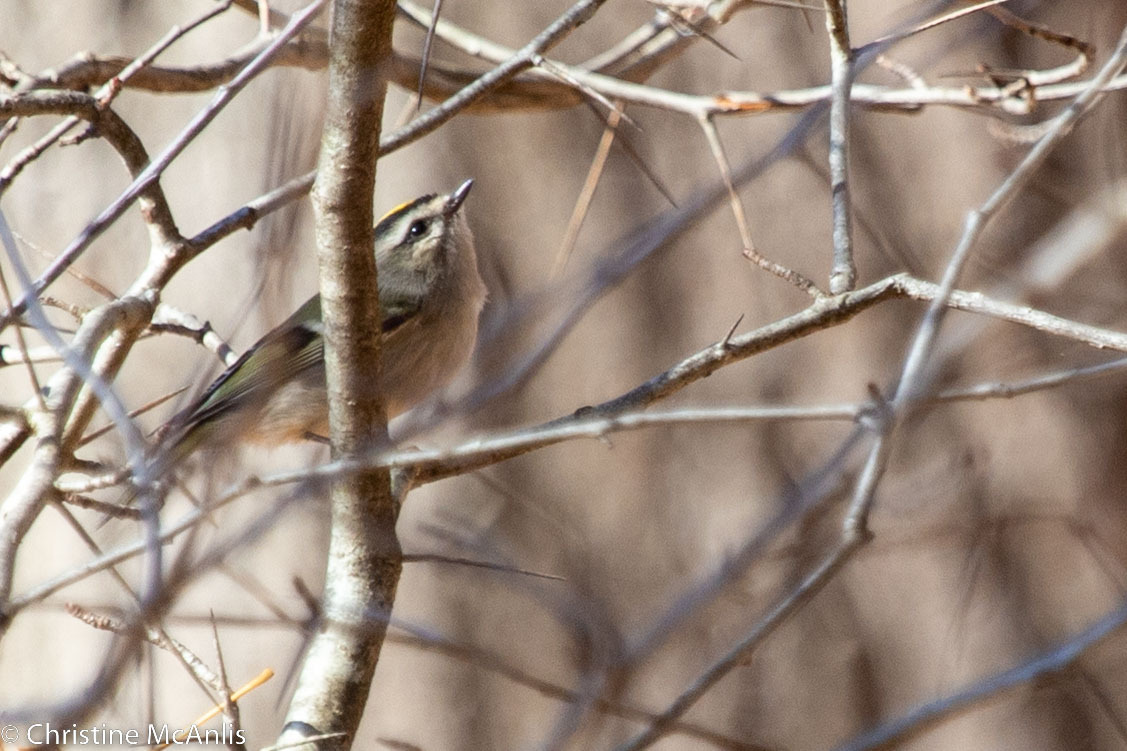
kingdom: Animalia
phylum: Chordata
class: Aves
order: Passeriformes
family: Regulidae
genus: Regulus
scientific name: Regulus satrapa
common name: Golden-crowned kinglet
